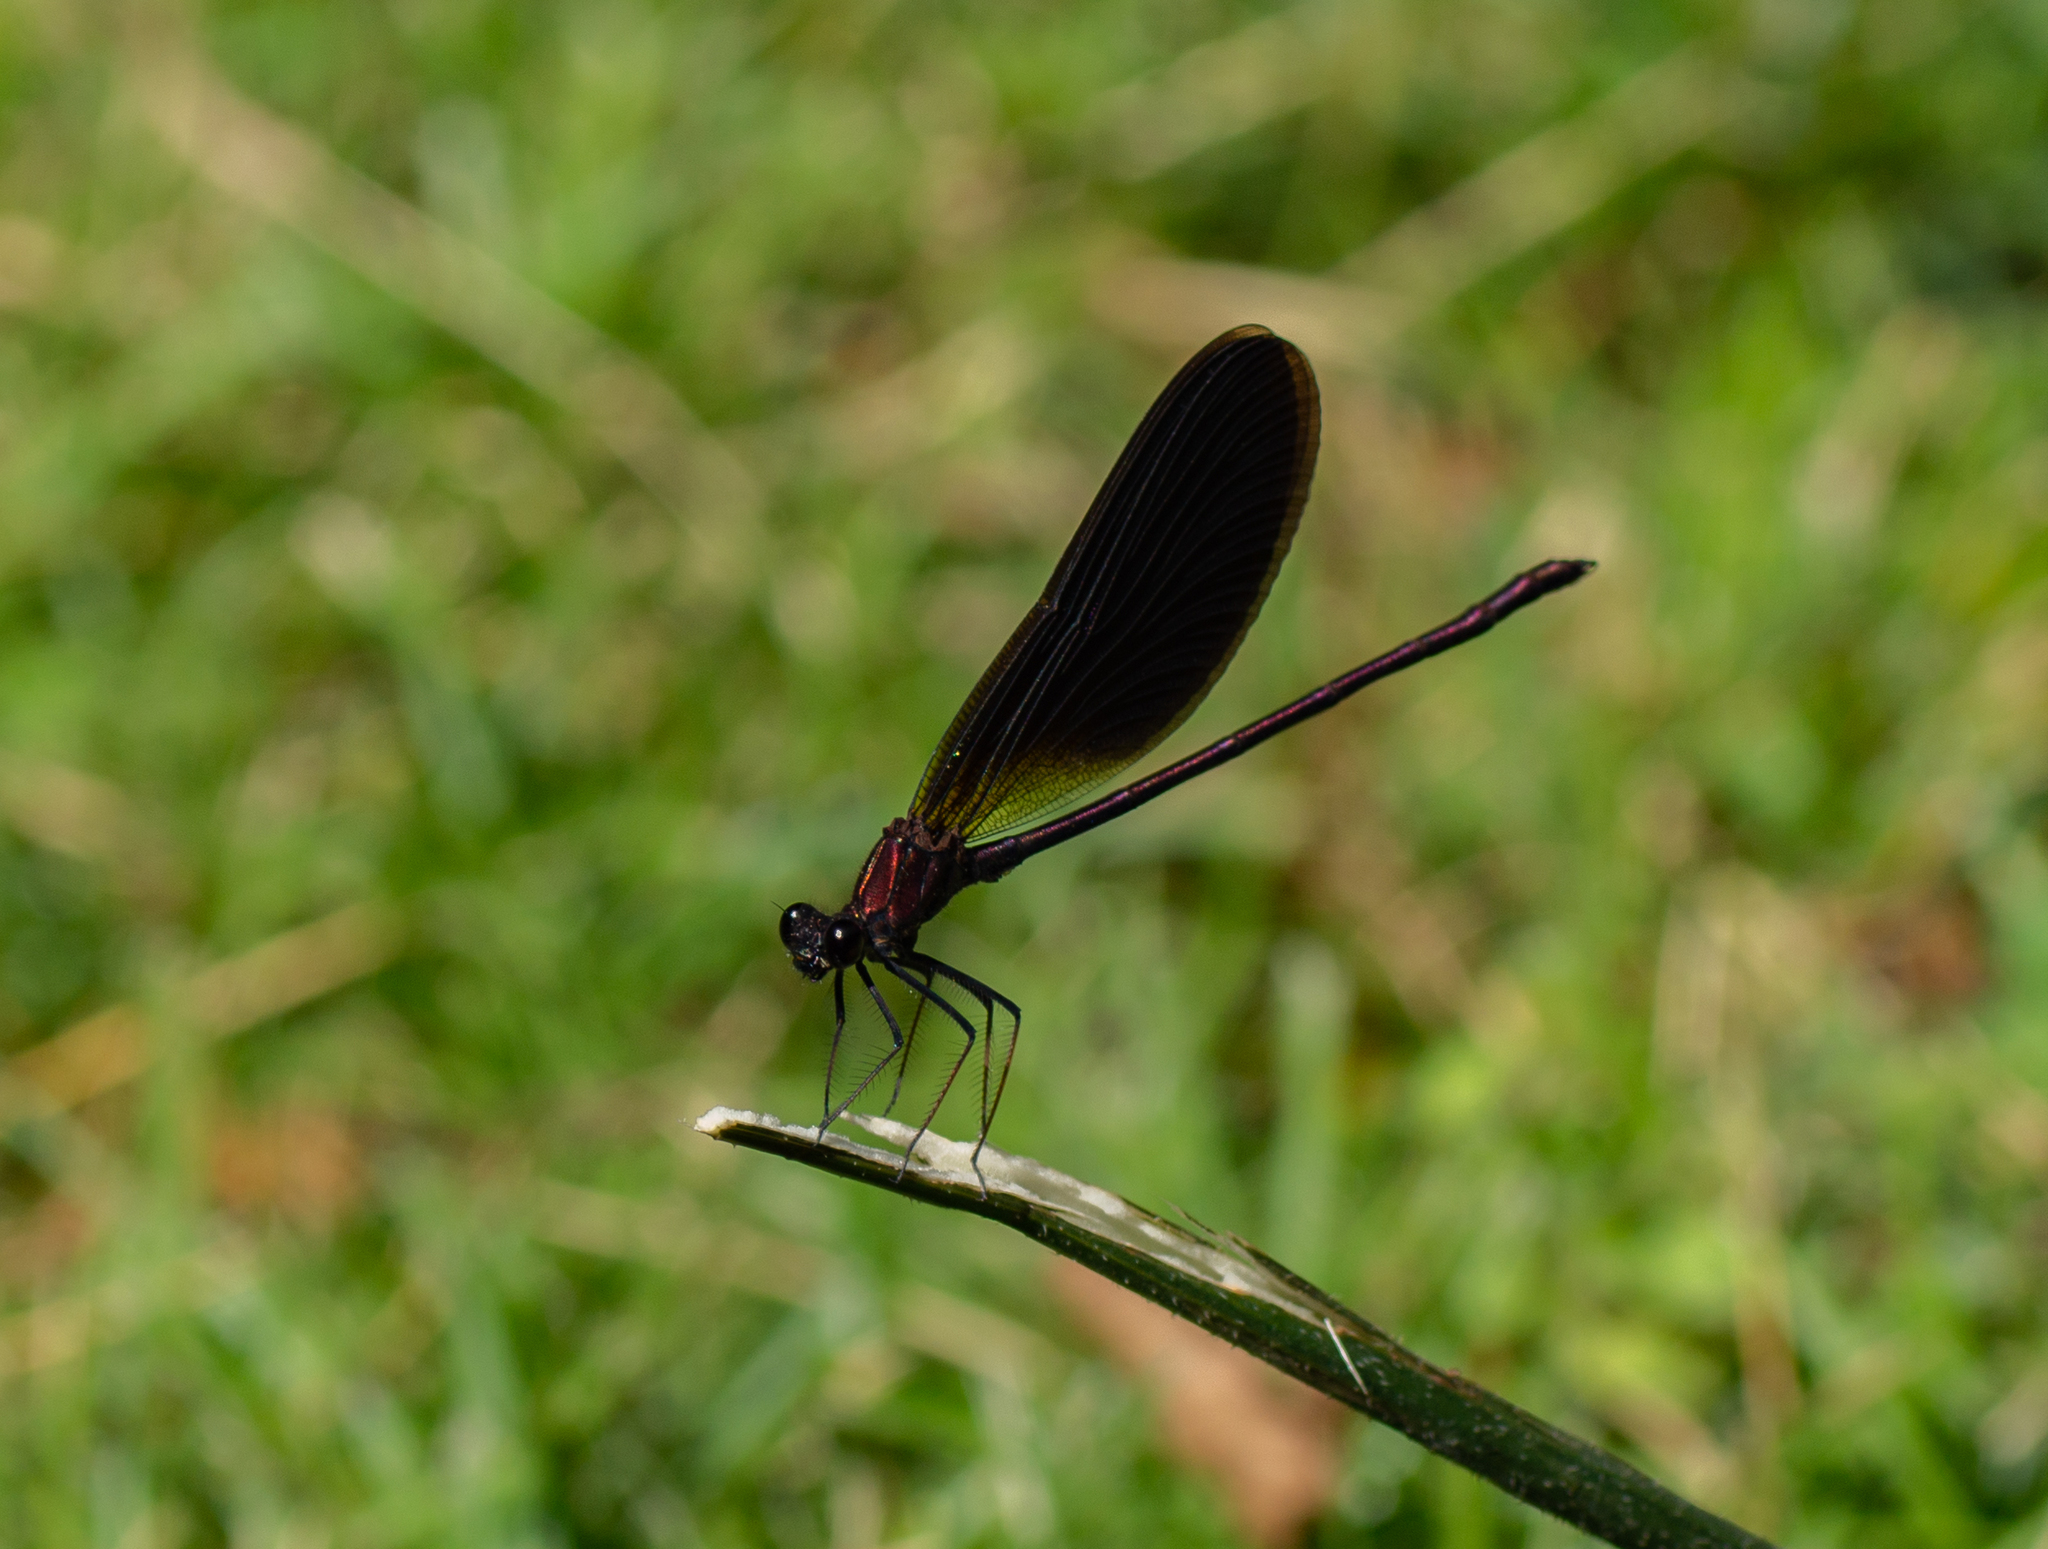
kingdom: Animalia
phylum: Arthropoda
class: Insecta
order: Odonata
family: Calopterygidae
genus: Calopteryx
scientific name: Calopteryx haemorrhoidalis
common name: Copper demoiselle
